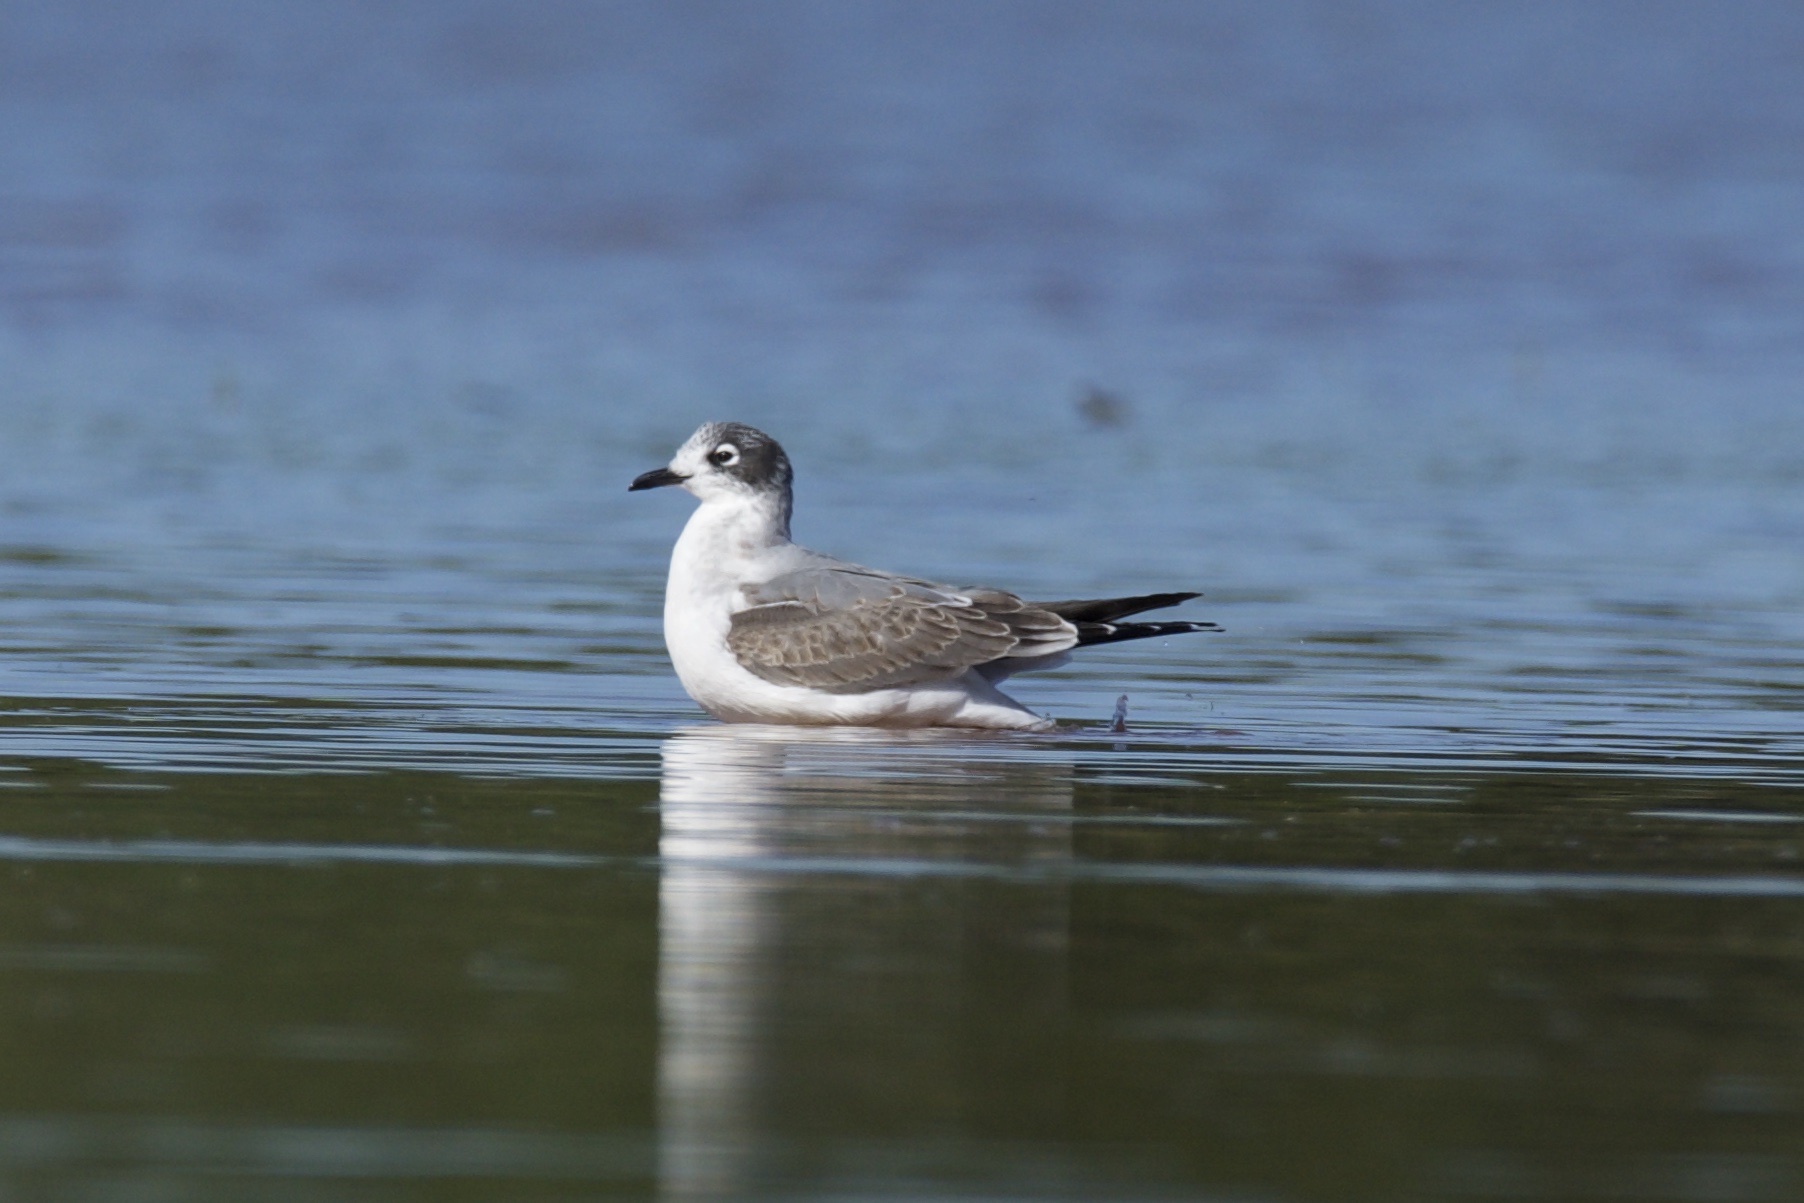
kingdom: Animalia
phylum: Chordata
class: Aves
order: Charadriiformes
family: Laridae
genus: Leucophaeus
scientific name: Leucophaeus pipixcan
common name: Franklin's gull
